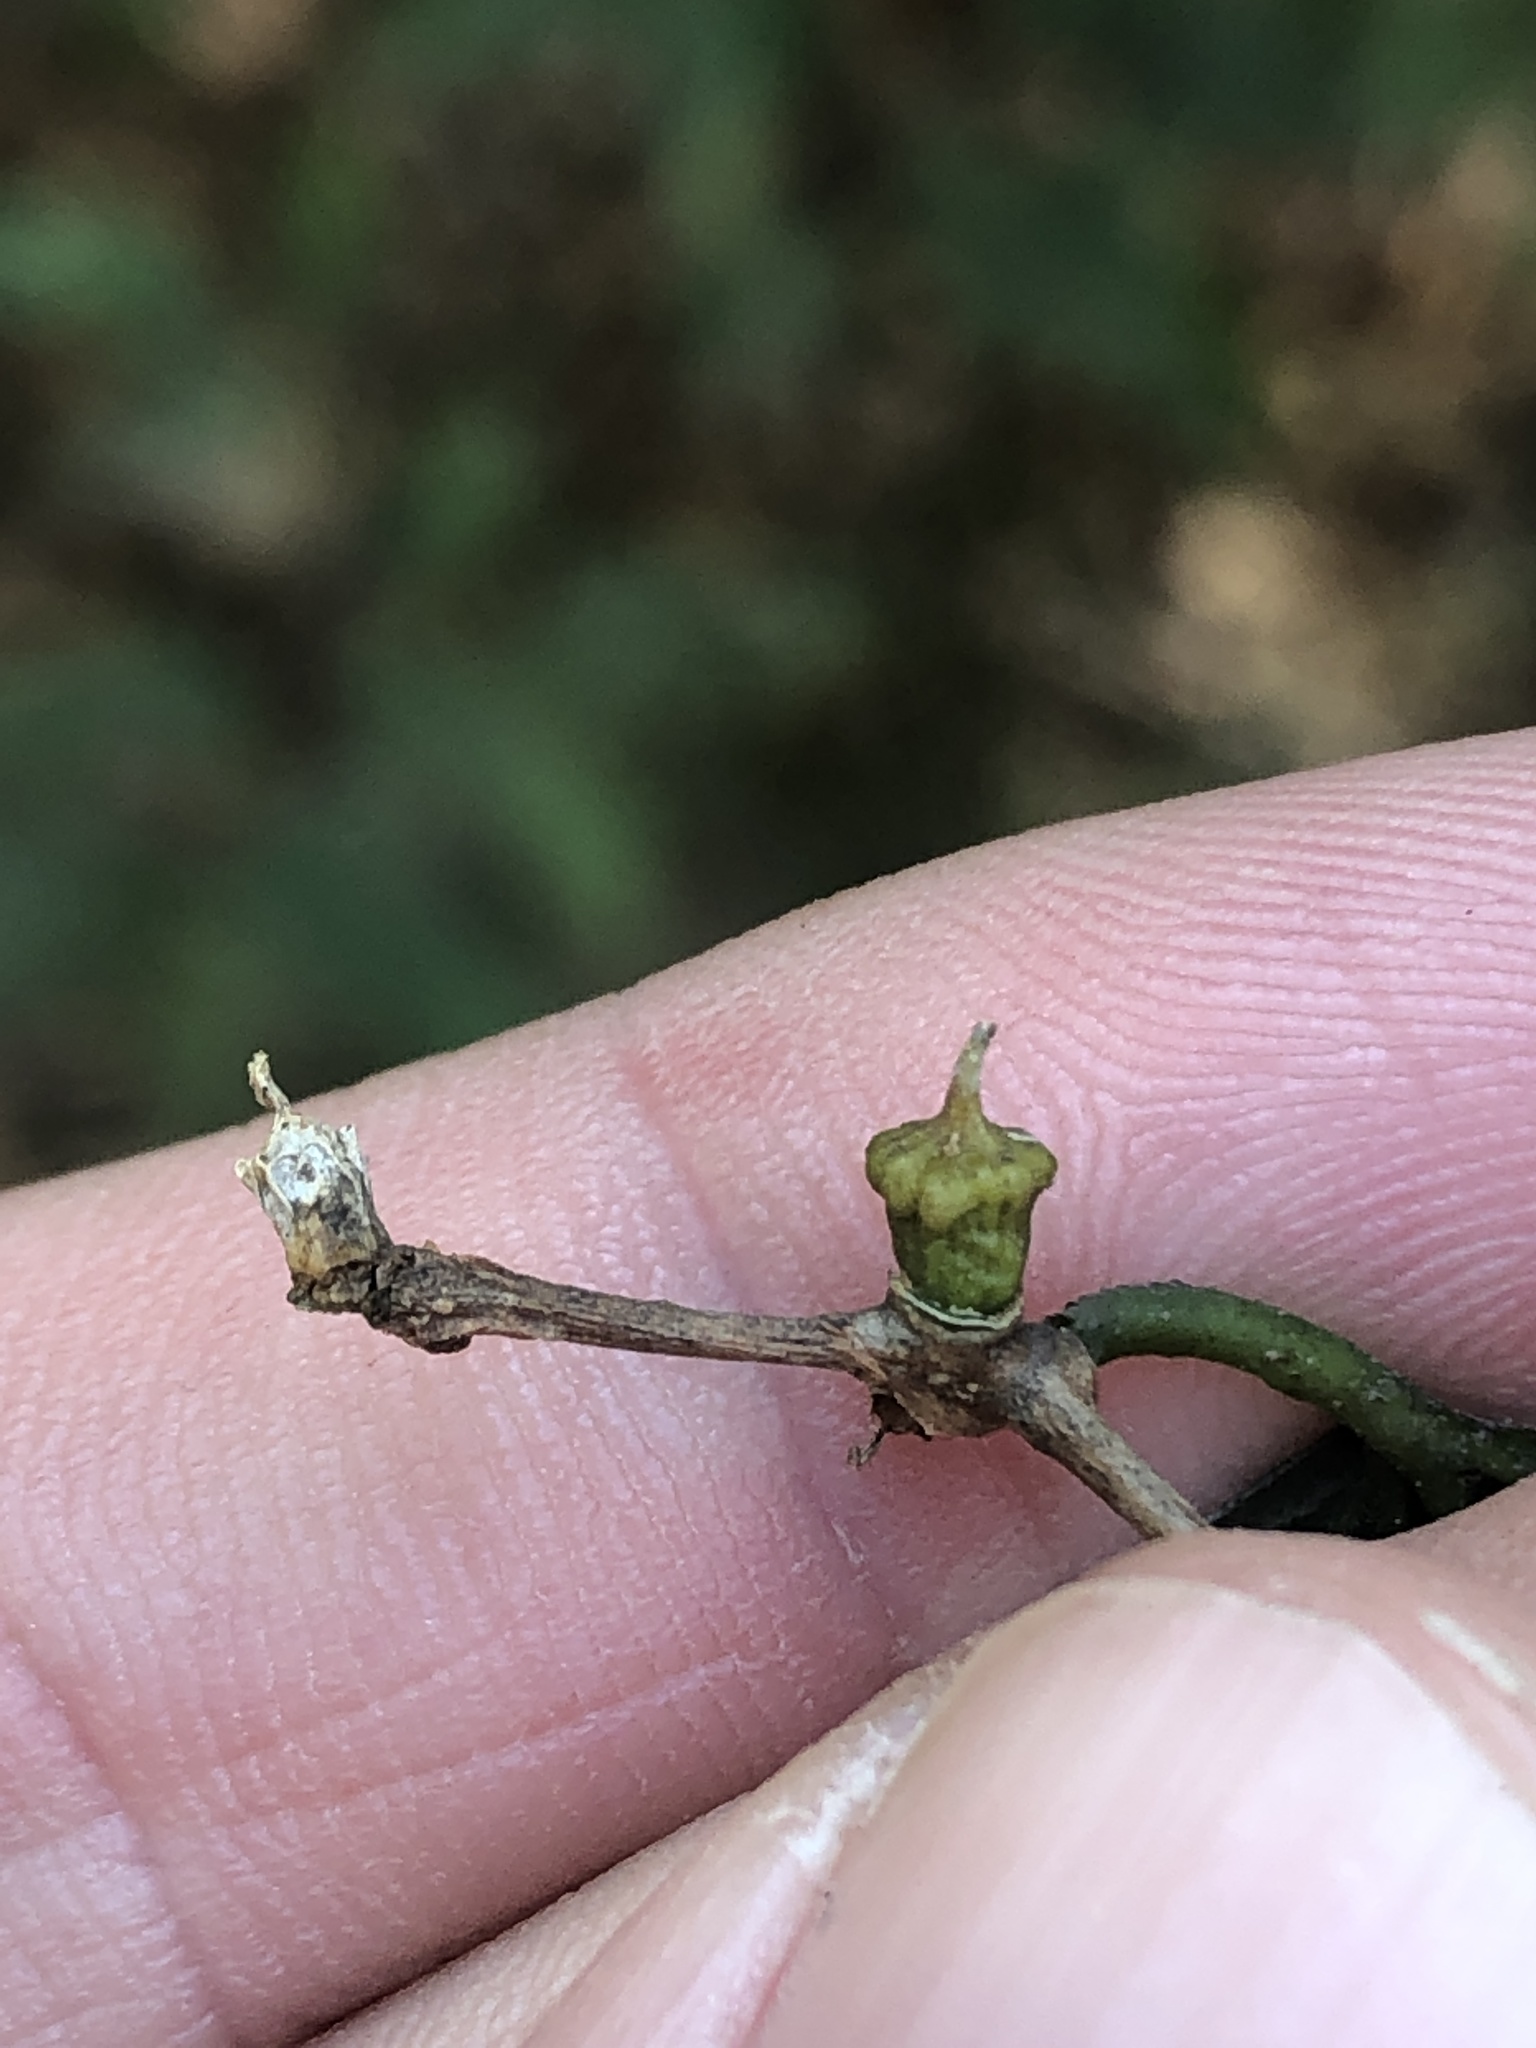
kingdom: Animalia
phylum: Arthropoda
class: Insecta
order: Diptera
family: Cecidomyiidae
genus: Celticecis
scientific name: Celticecis ramicola
